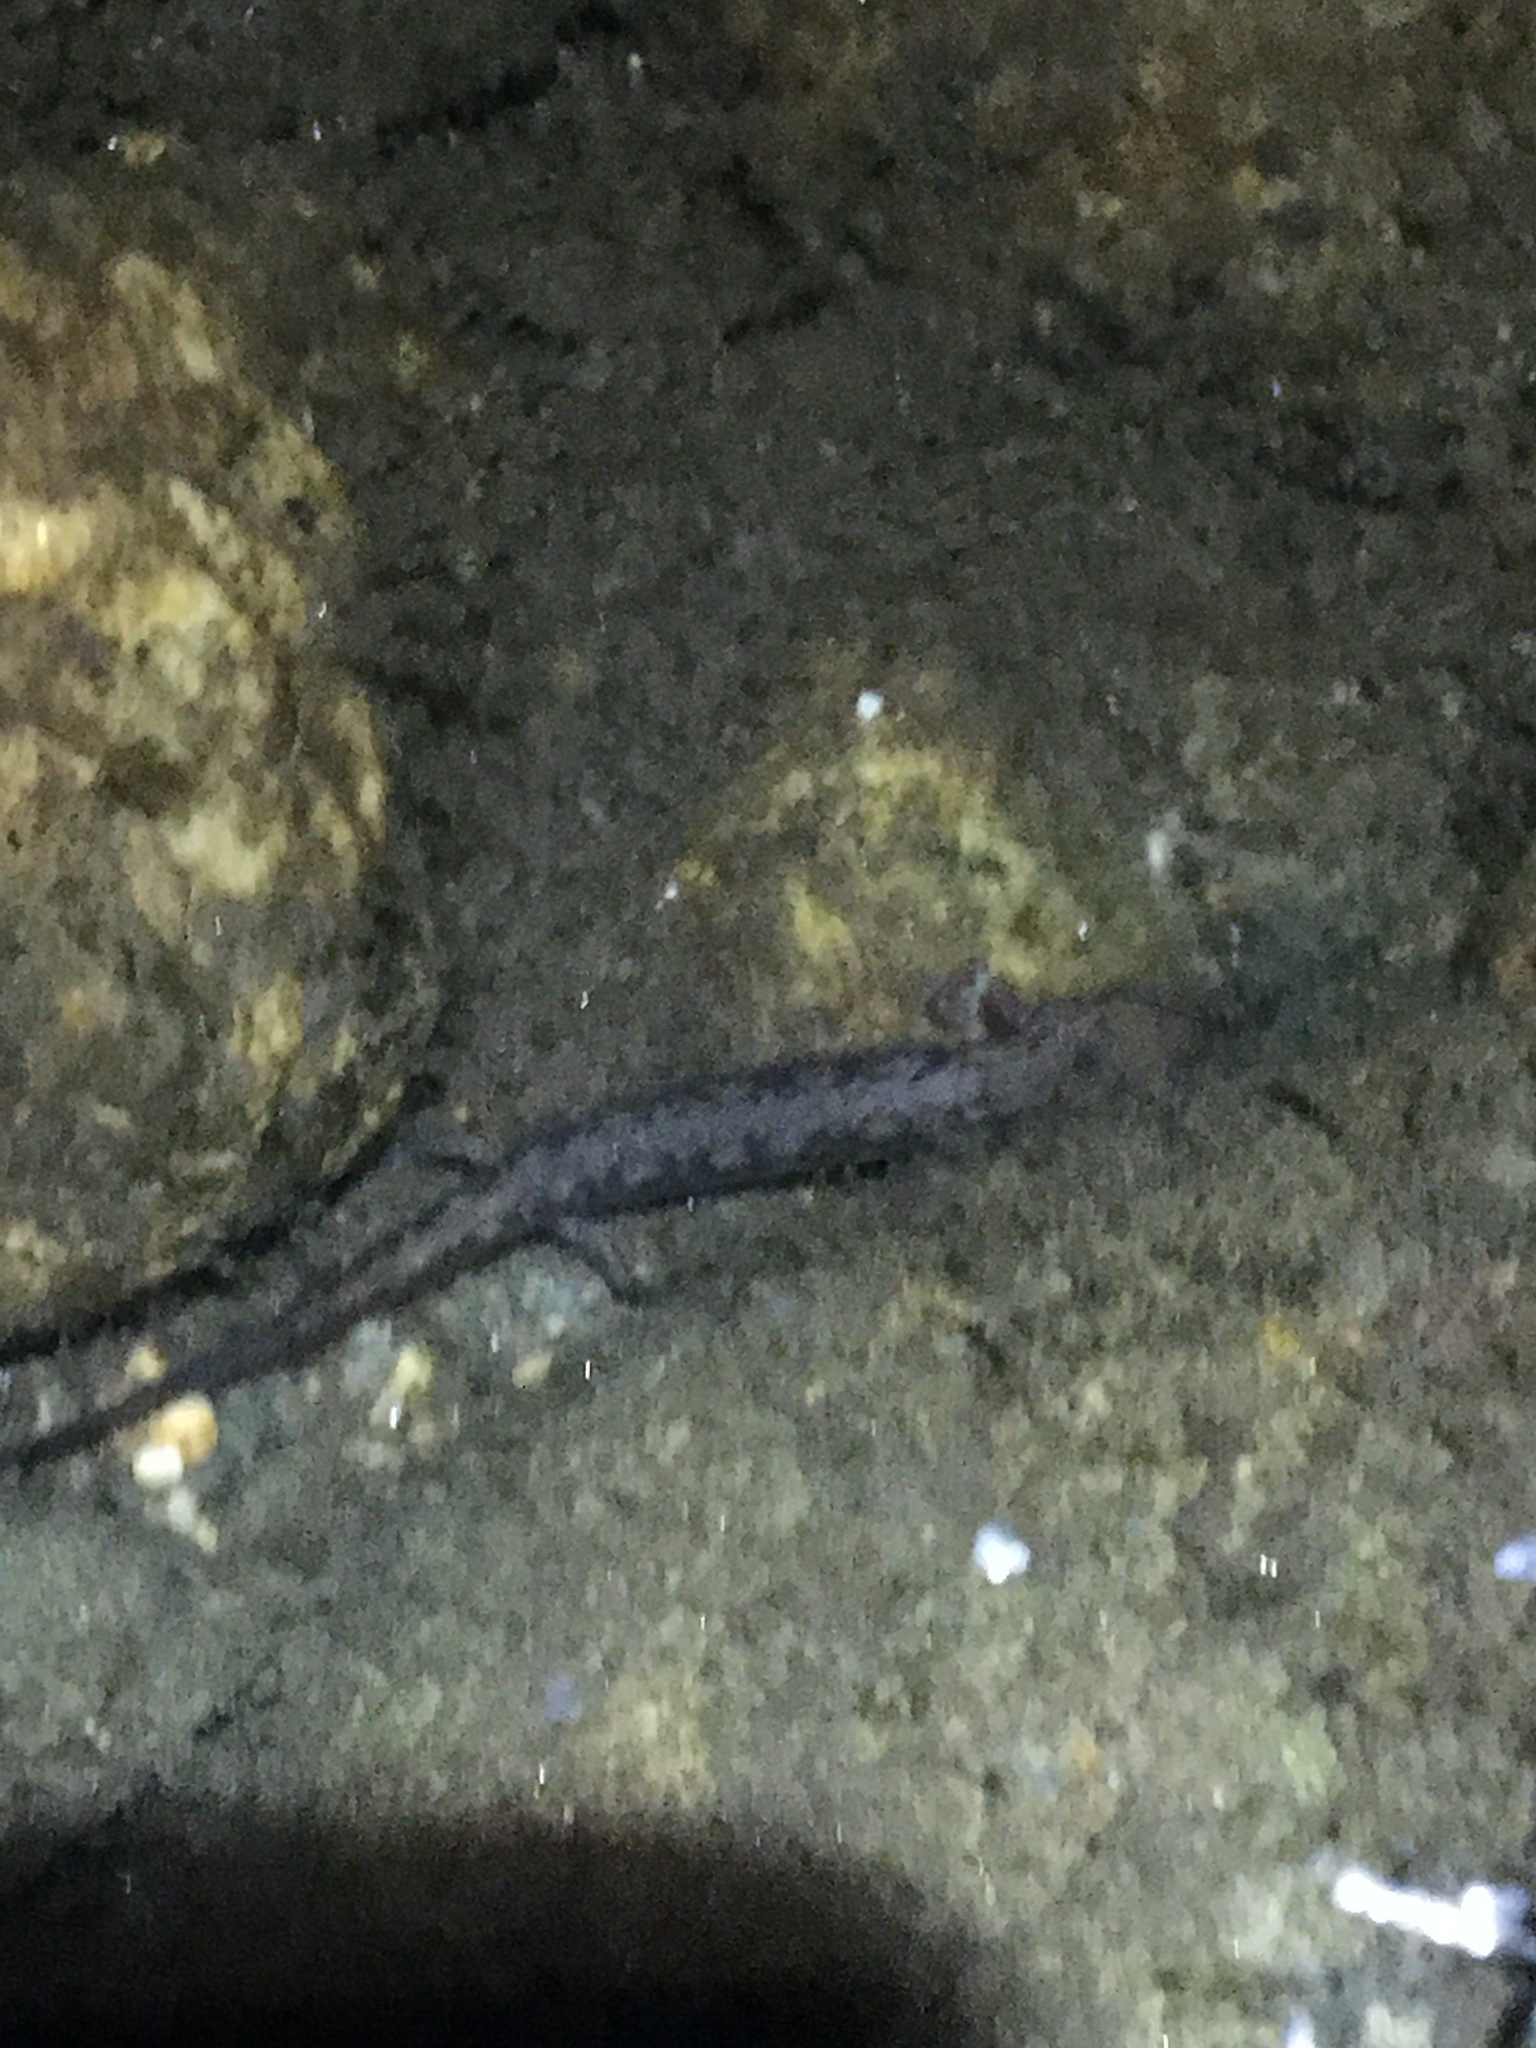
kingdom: Animalia
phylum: Chordata
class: Amphibia
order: Caudata
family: Plethodontidae
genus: Eurycea
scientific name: Eurycea bislineata
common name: Northern two-lined salamander
